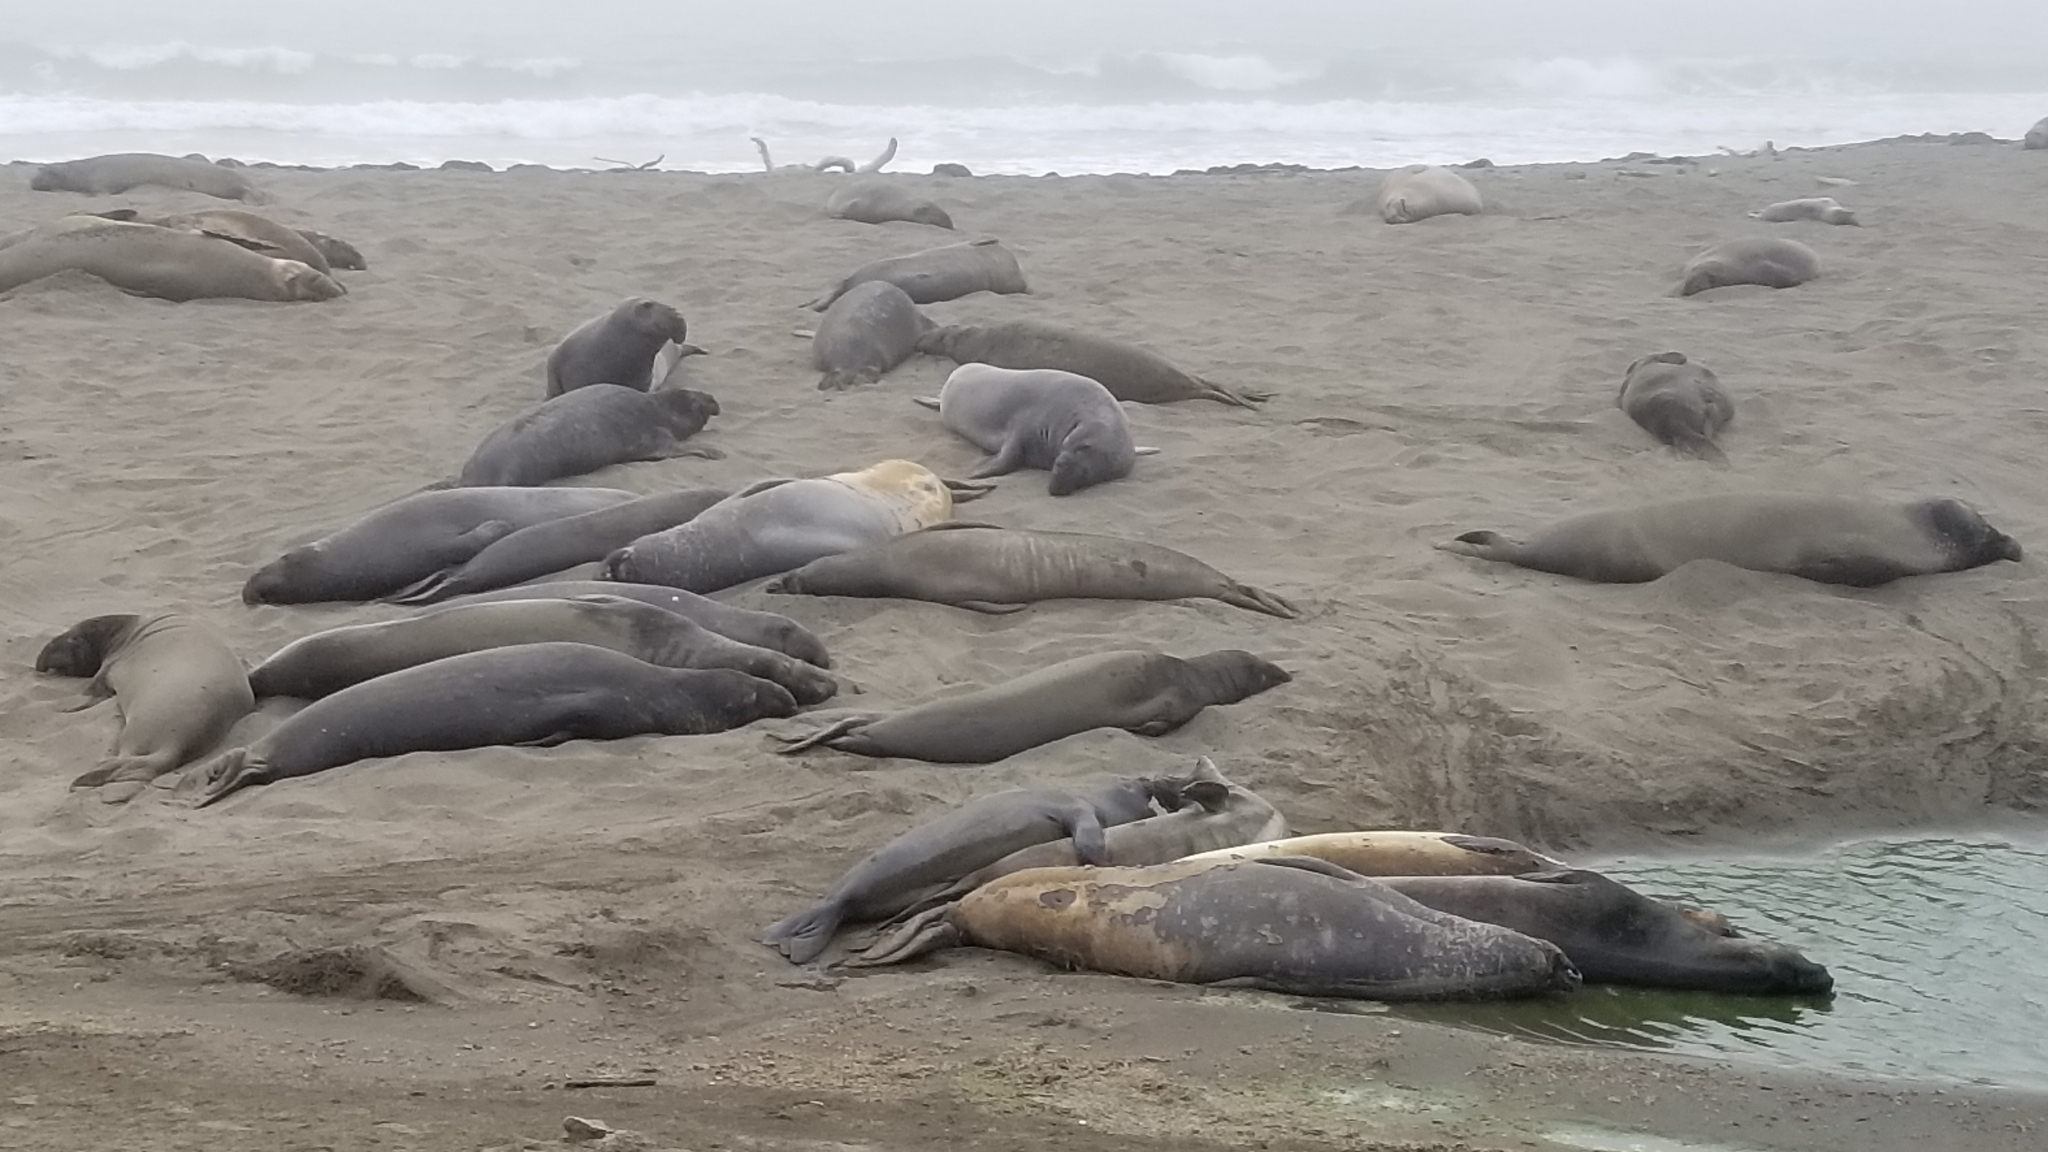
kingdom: Animalia
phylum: Chordata
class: Mammalia
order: Carnivora
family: Phocidae
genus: Mirounga
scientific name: Mirounga angustirostris
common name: Northern elephant seal
